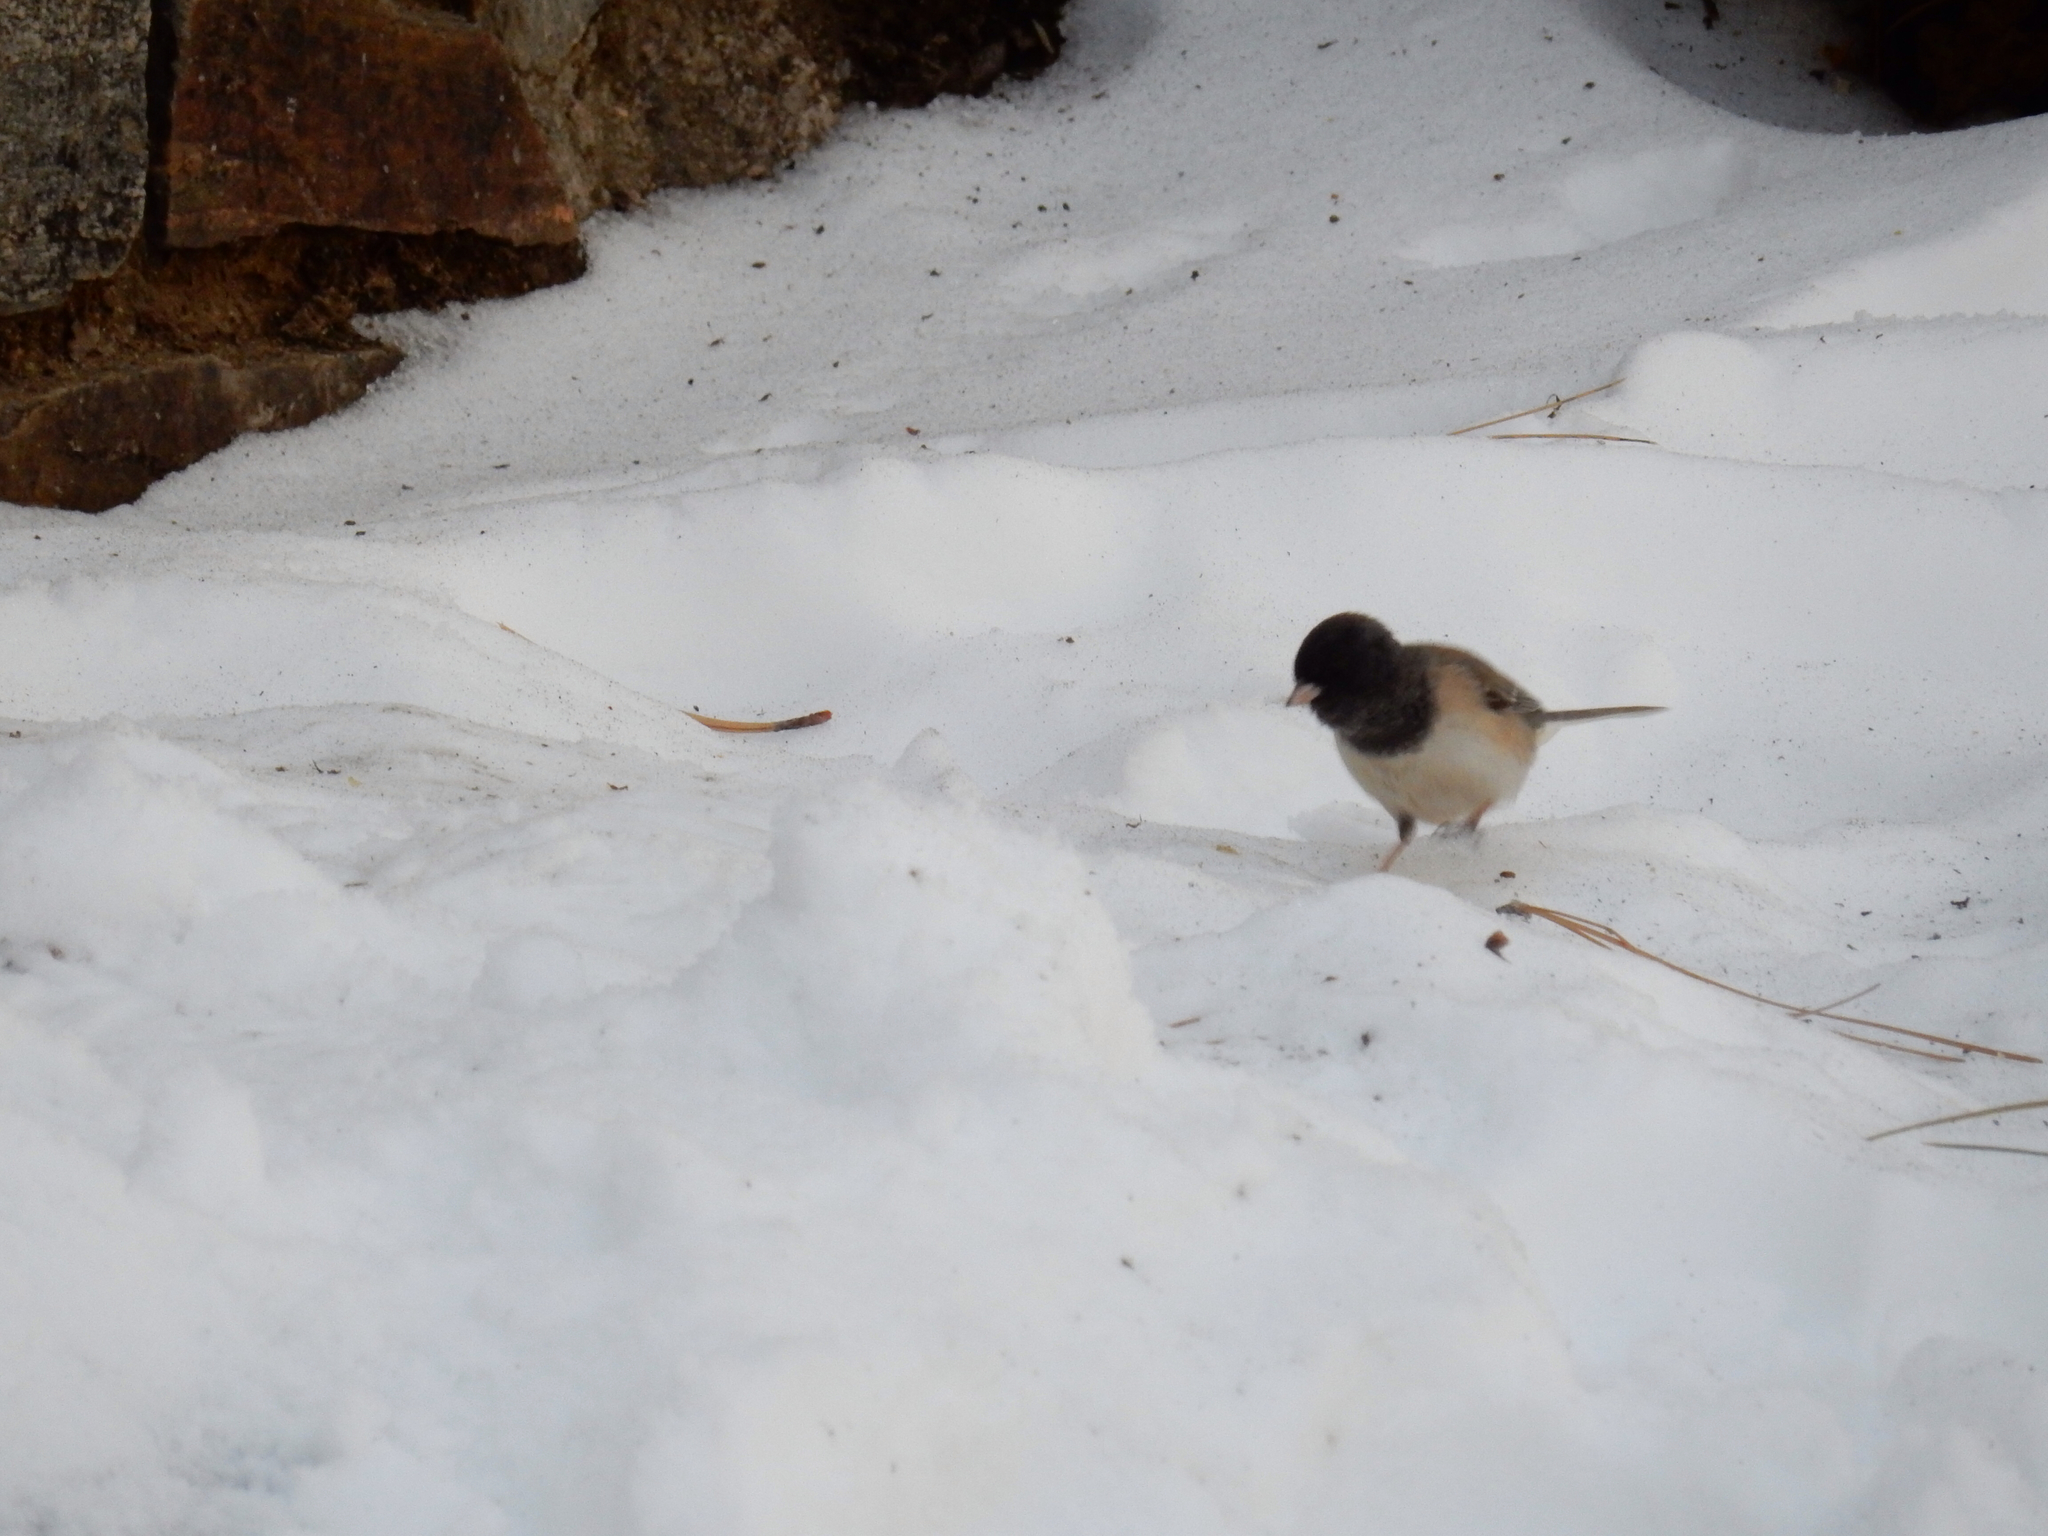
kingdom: Animalia
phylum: Chordata
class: Aves
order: Passeriformes
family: Passerellidae
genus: Junco
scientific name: Junco hyemalis
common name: Dark-eyed junco
